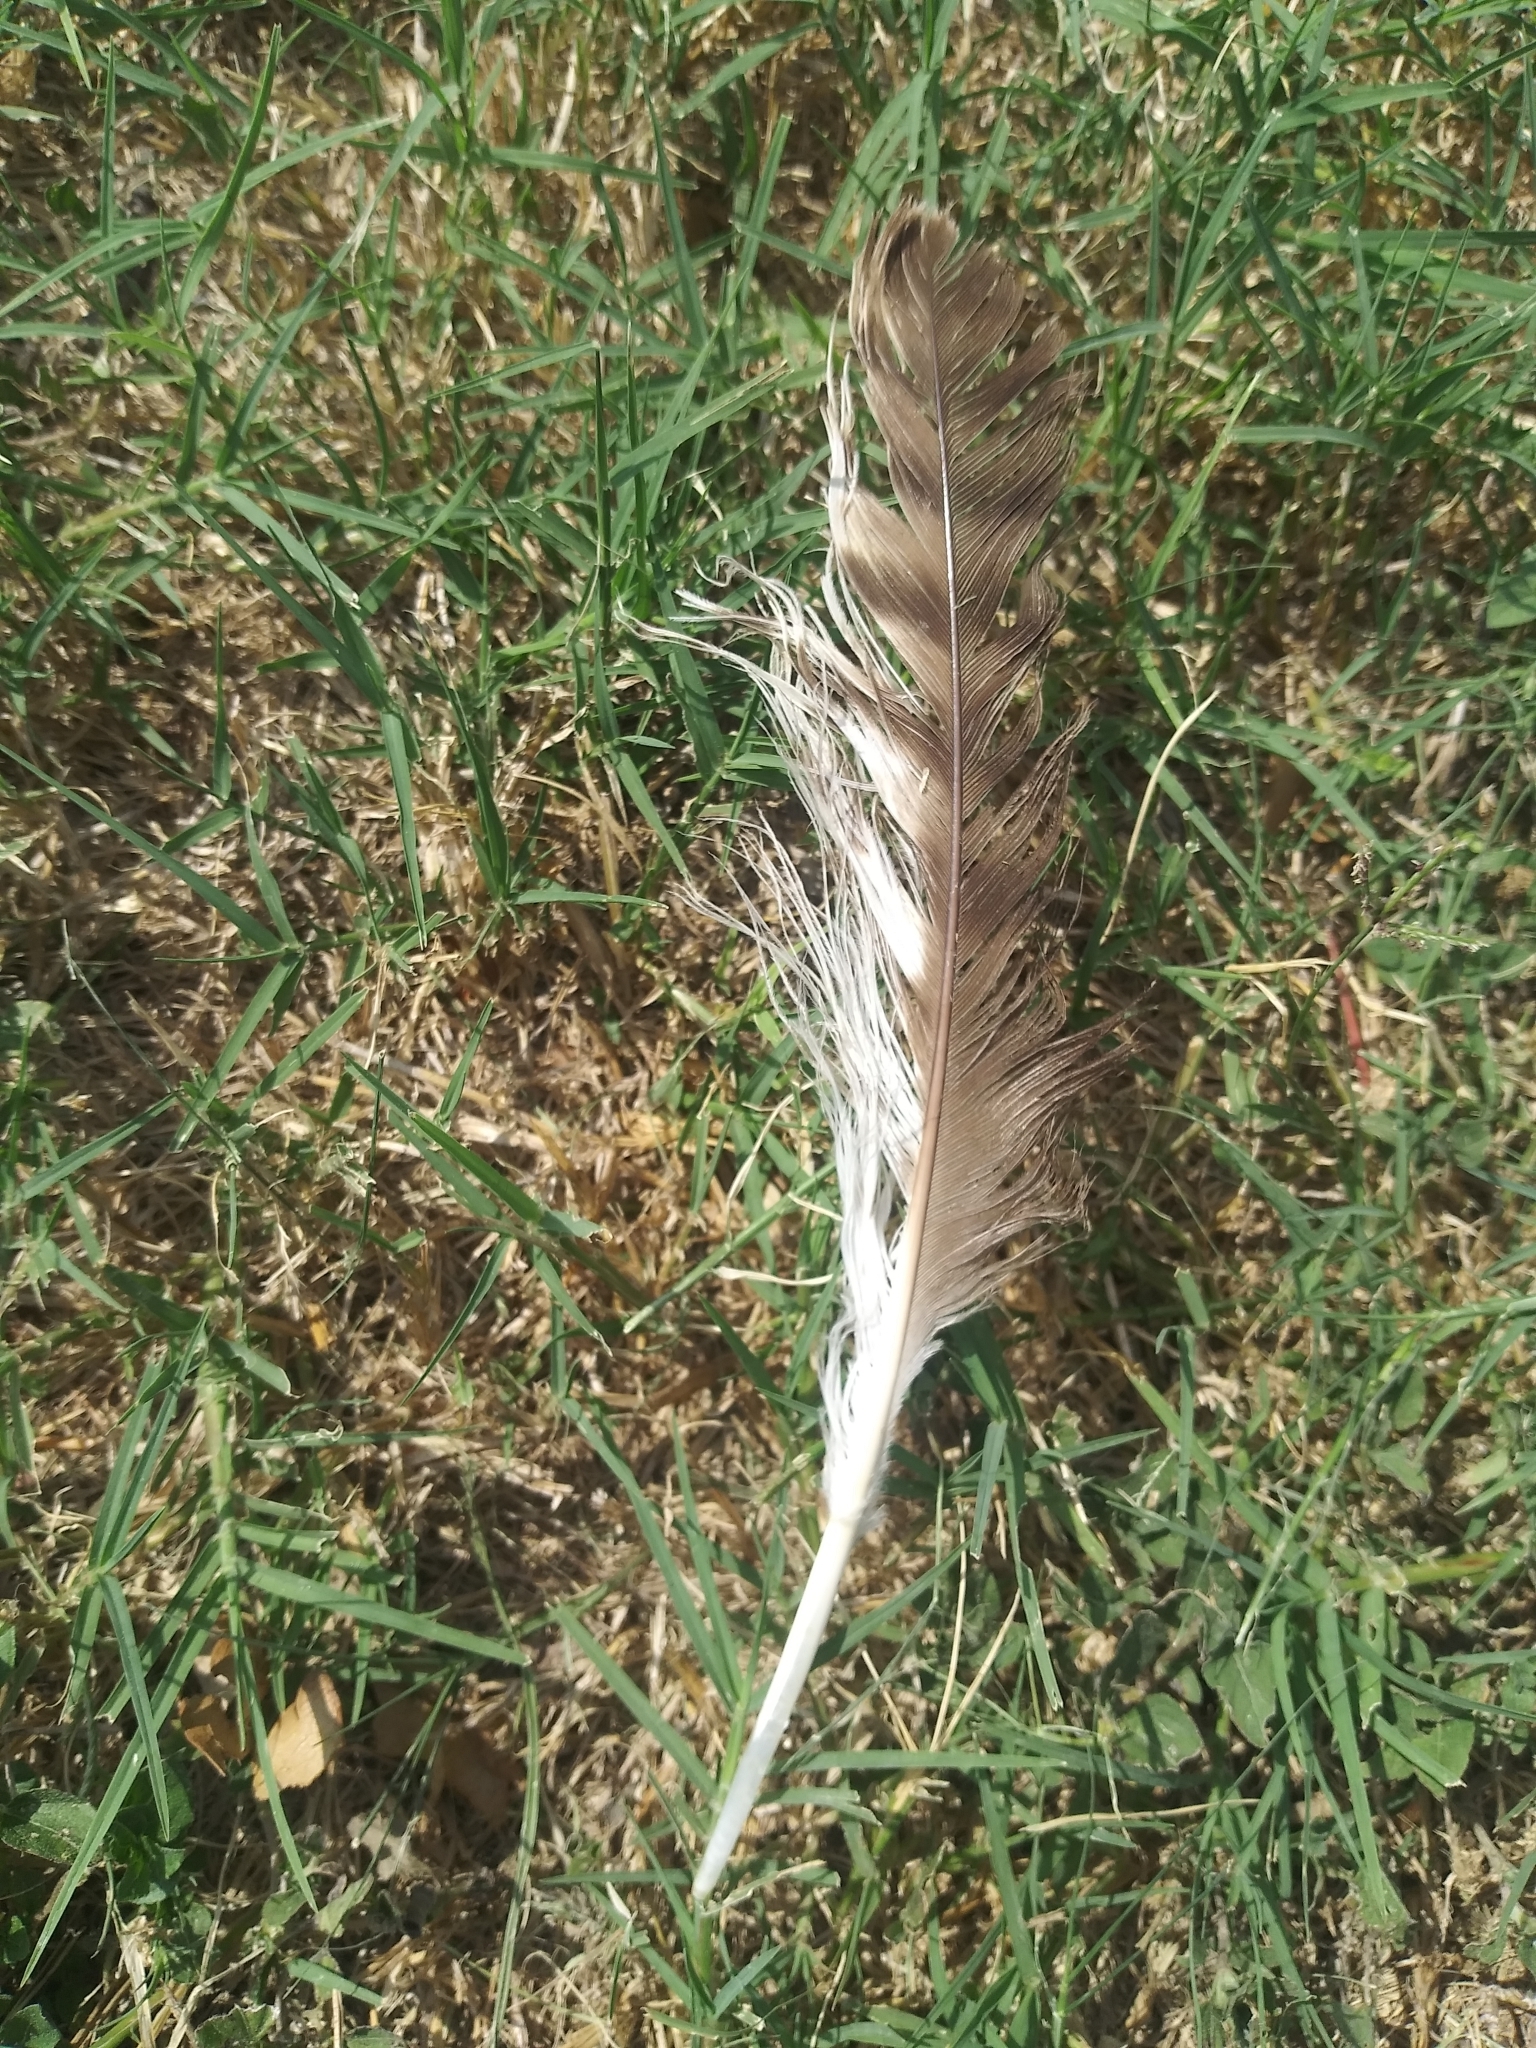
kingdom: Animalia
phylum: Chordata
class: Aves
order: Accipitriformes
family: Accipitridae
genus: Buteo
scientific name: Buteo jamaicensis
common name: Red-tailed hawk
